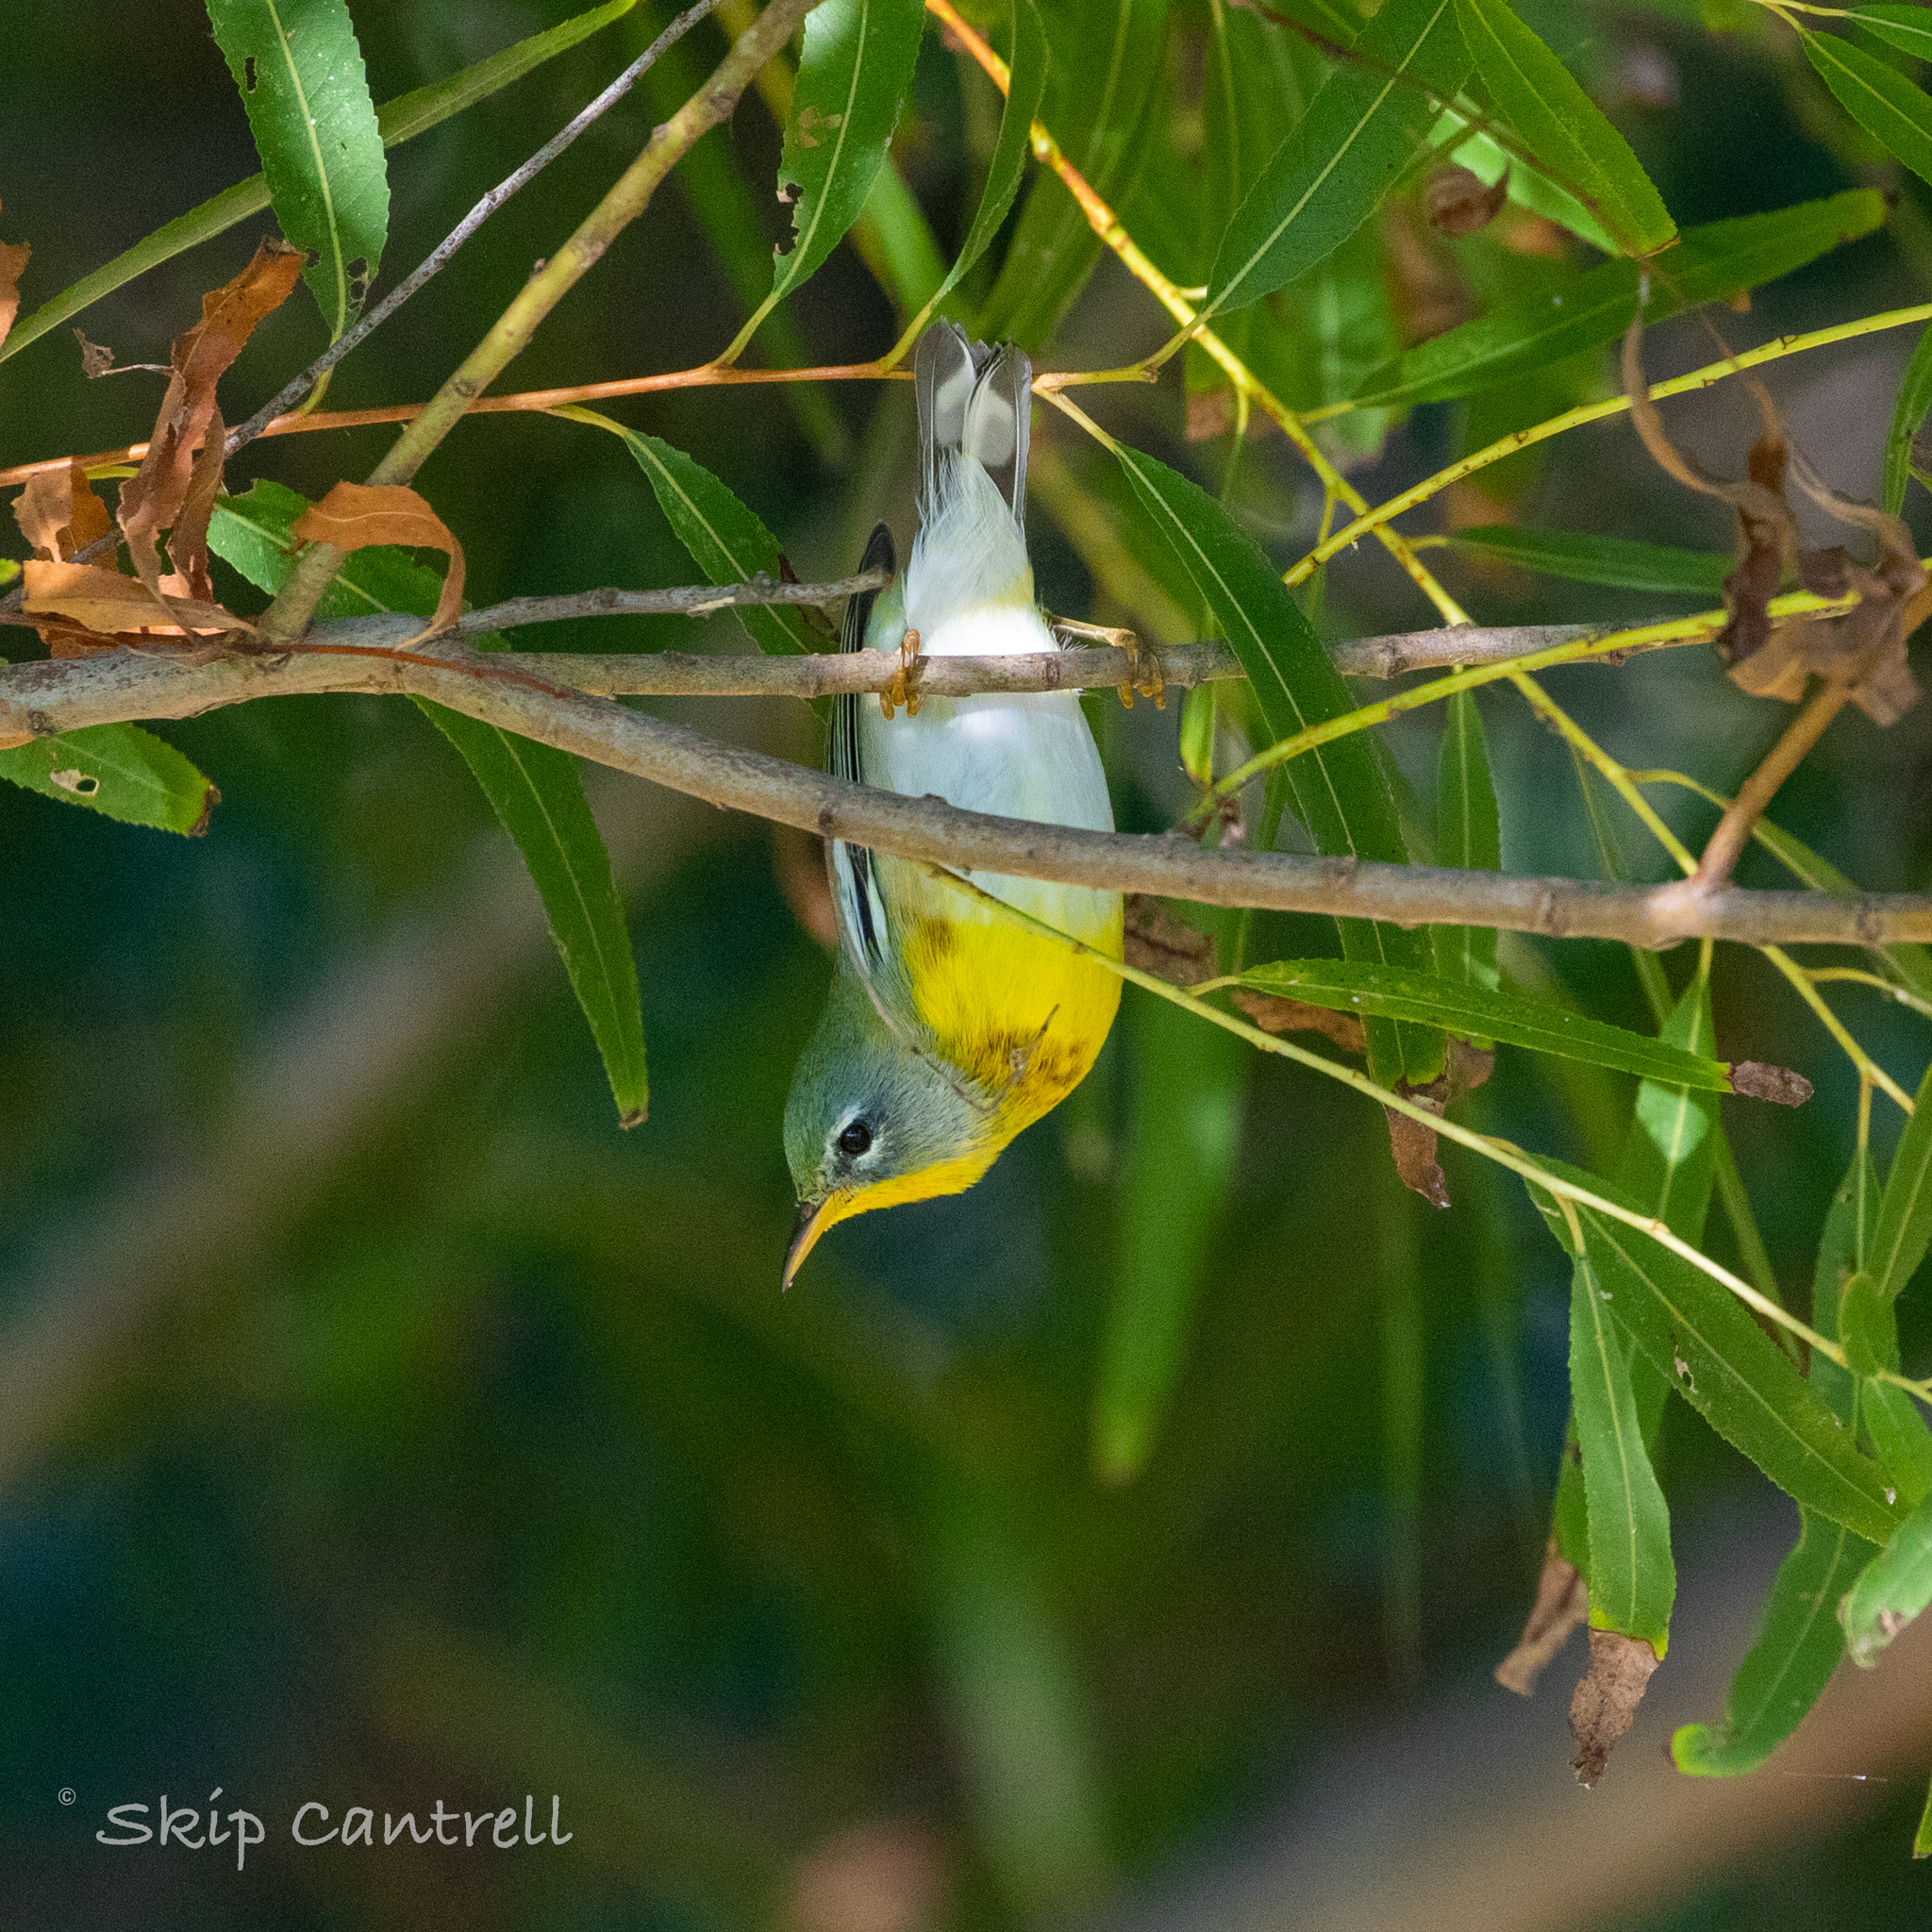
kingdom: Animalia
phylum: Chordata
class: Aves
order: Passeriformes
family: Parulidae
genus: Setophaga
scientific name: Setophaga americana
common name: Northern parula
